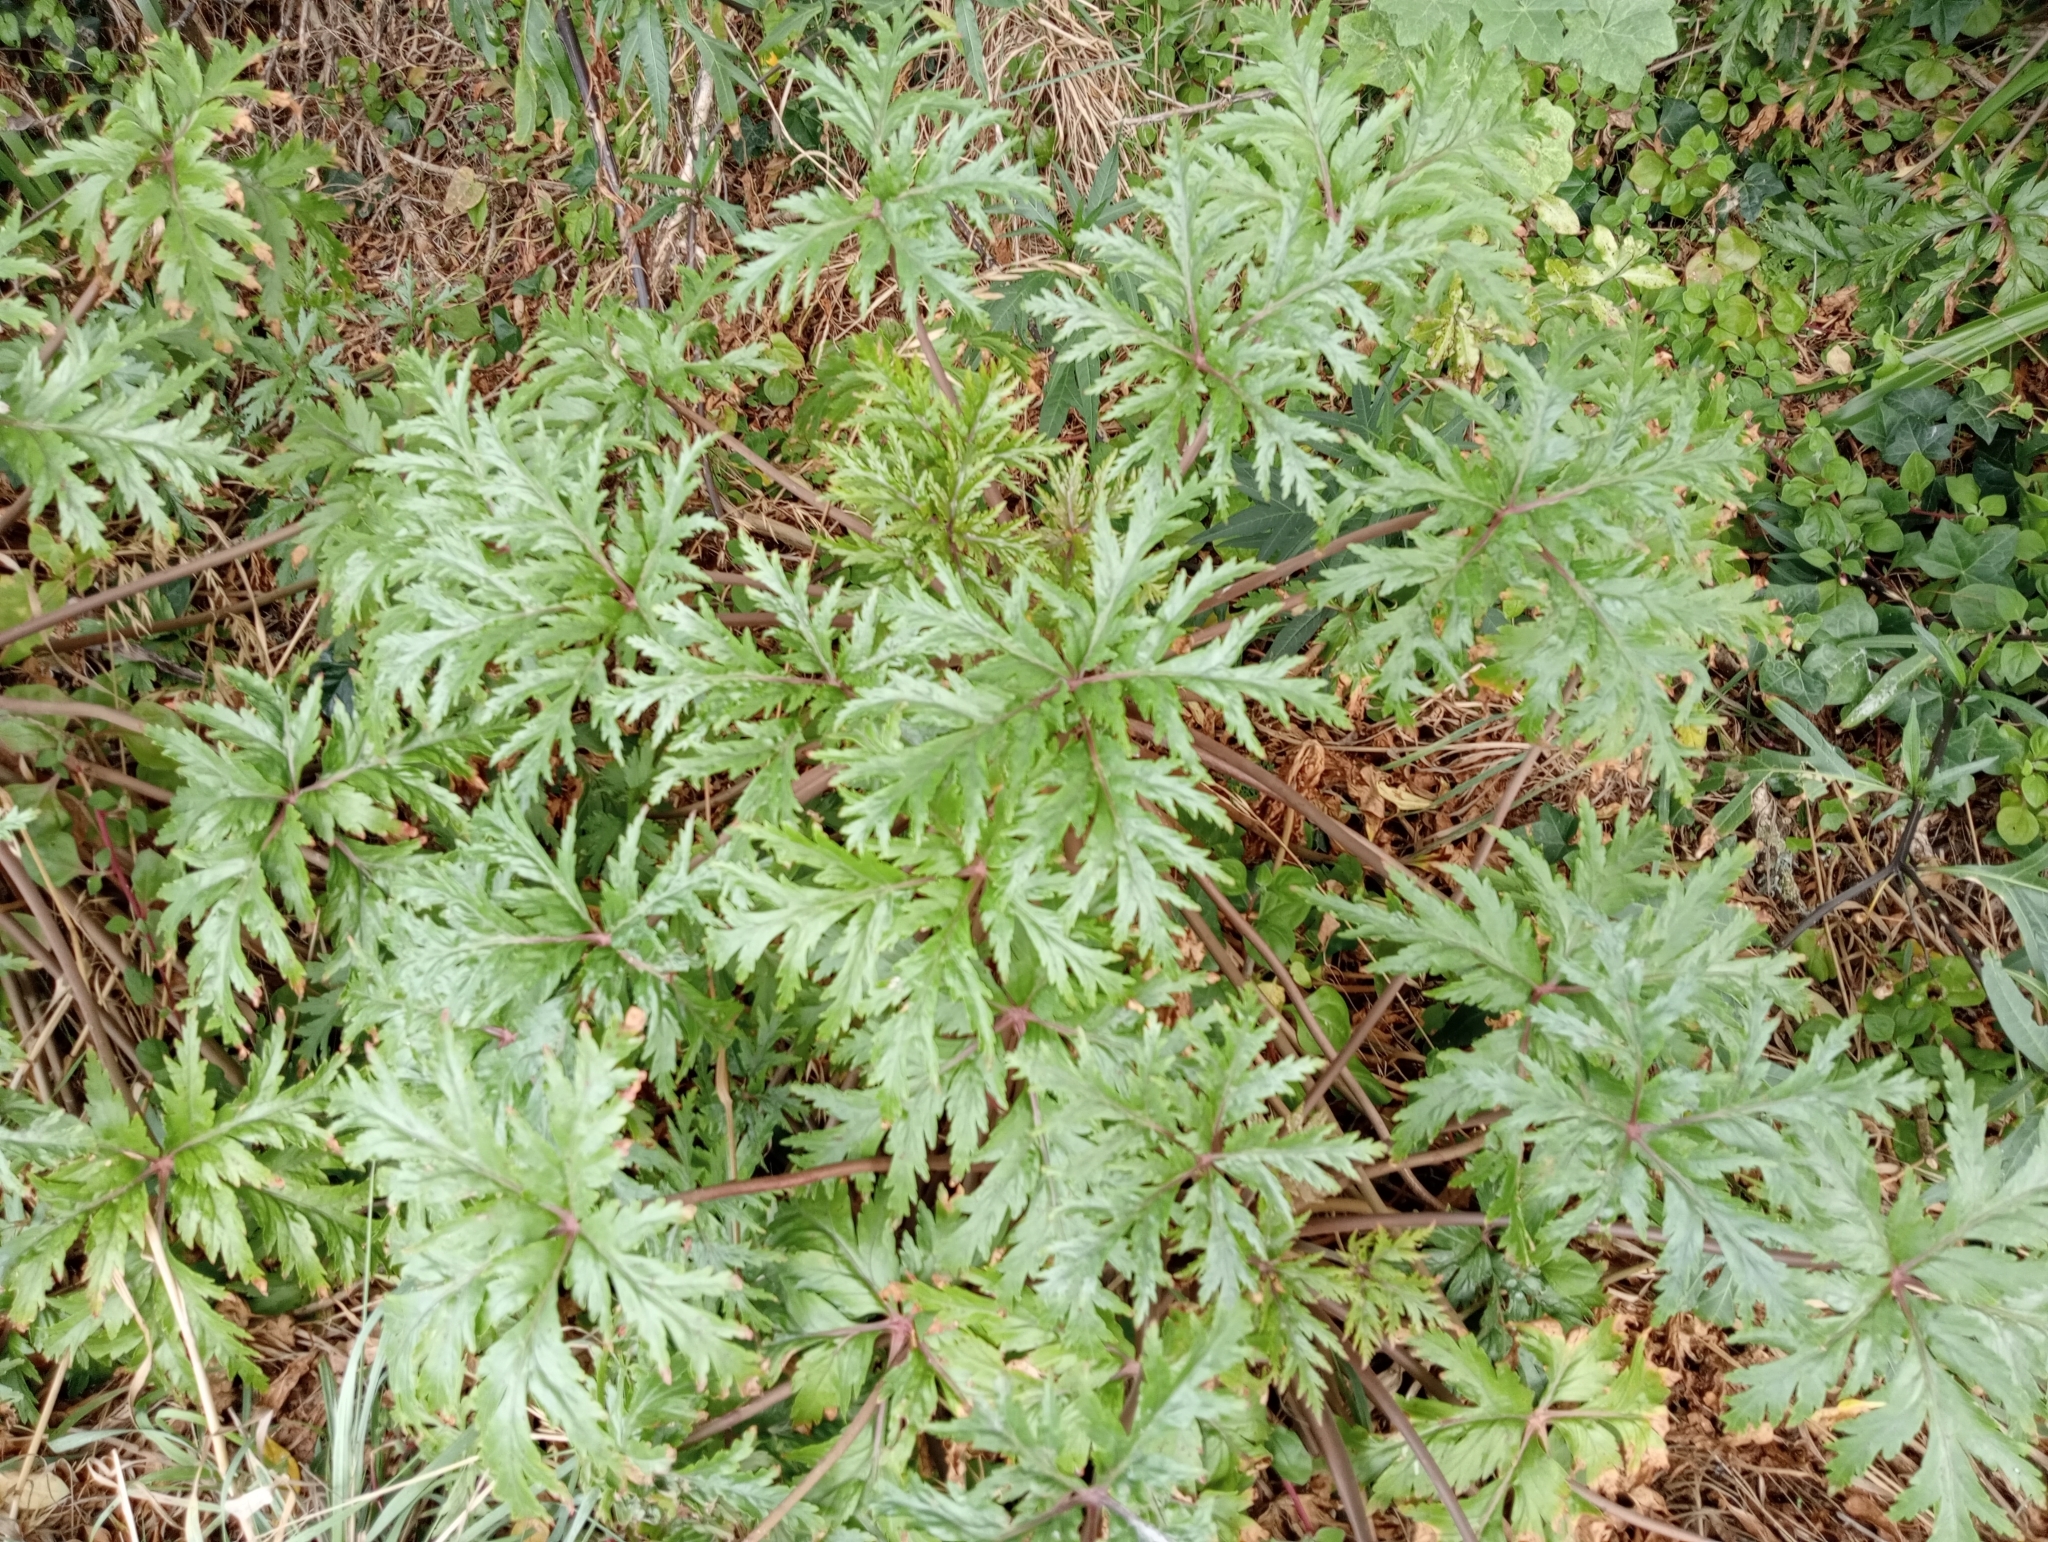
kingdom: Plantae
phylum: Tracheophyta
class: Magnoliopsida
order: Geraniales
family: Geraniaceae
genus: Geranium
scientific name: Geranium maderense
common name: Giant herb-robert
